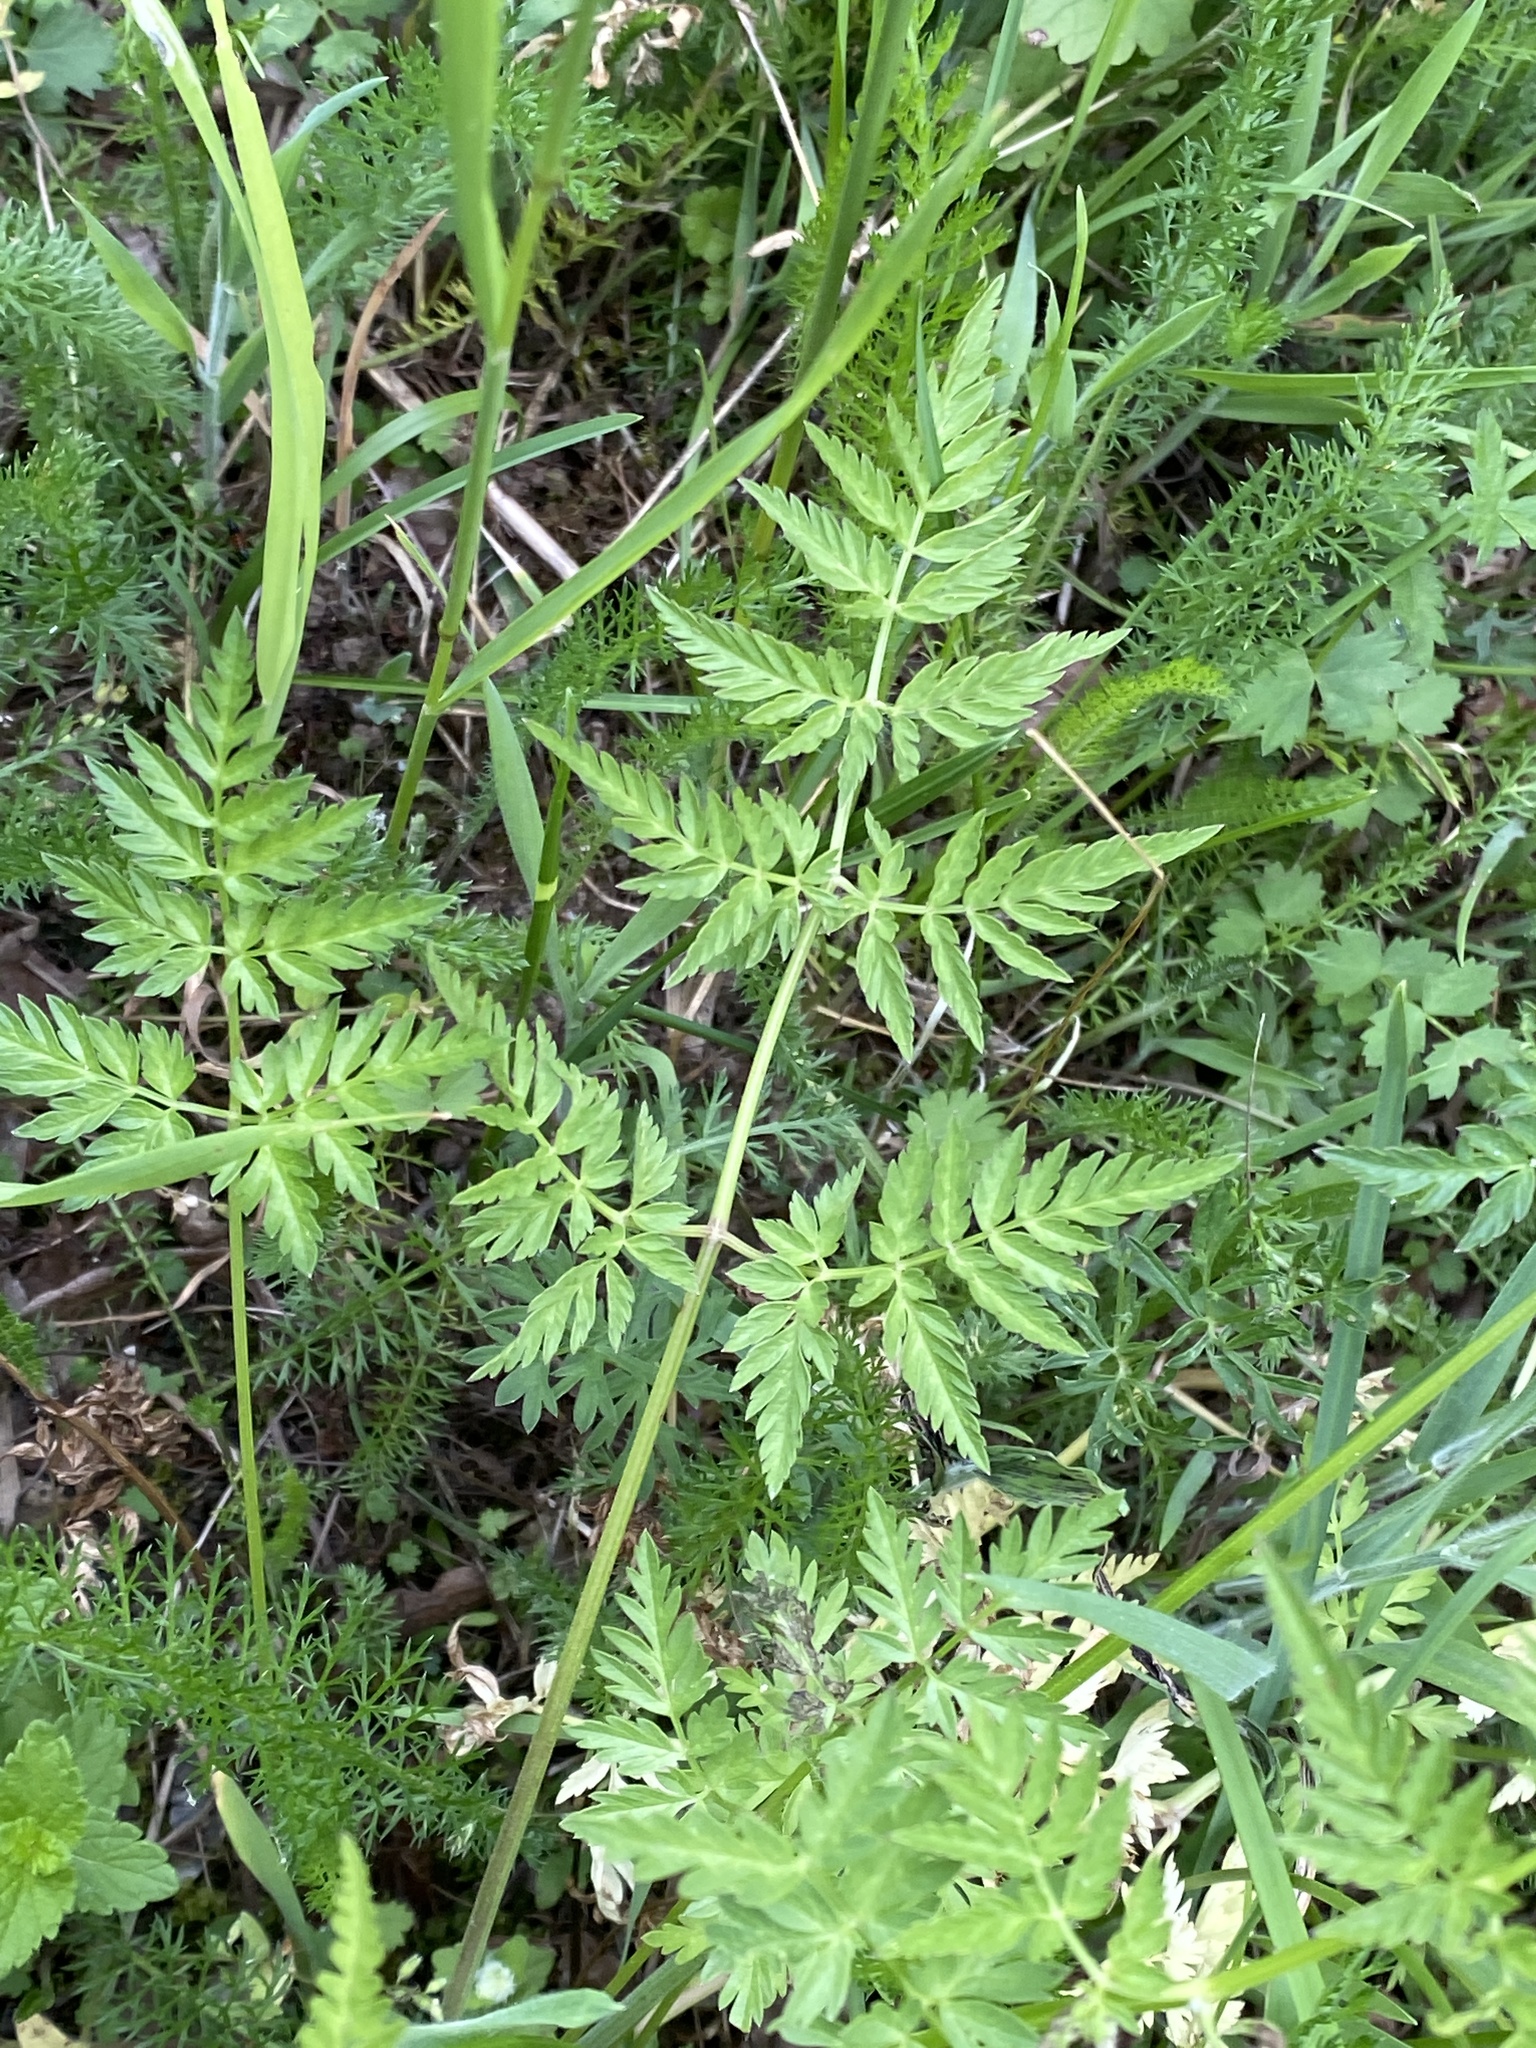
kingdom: Plantae
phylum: Tracheophyta
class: Magnoliopsida
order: Apiales
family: Apiaceae
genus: Anthriscus
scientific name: Anthriscus sylvestris
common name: Cow parsley
